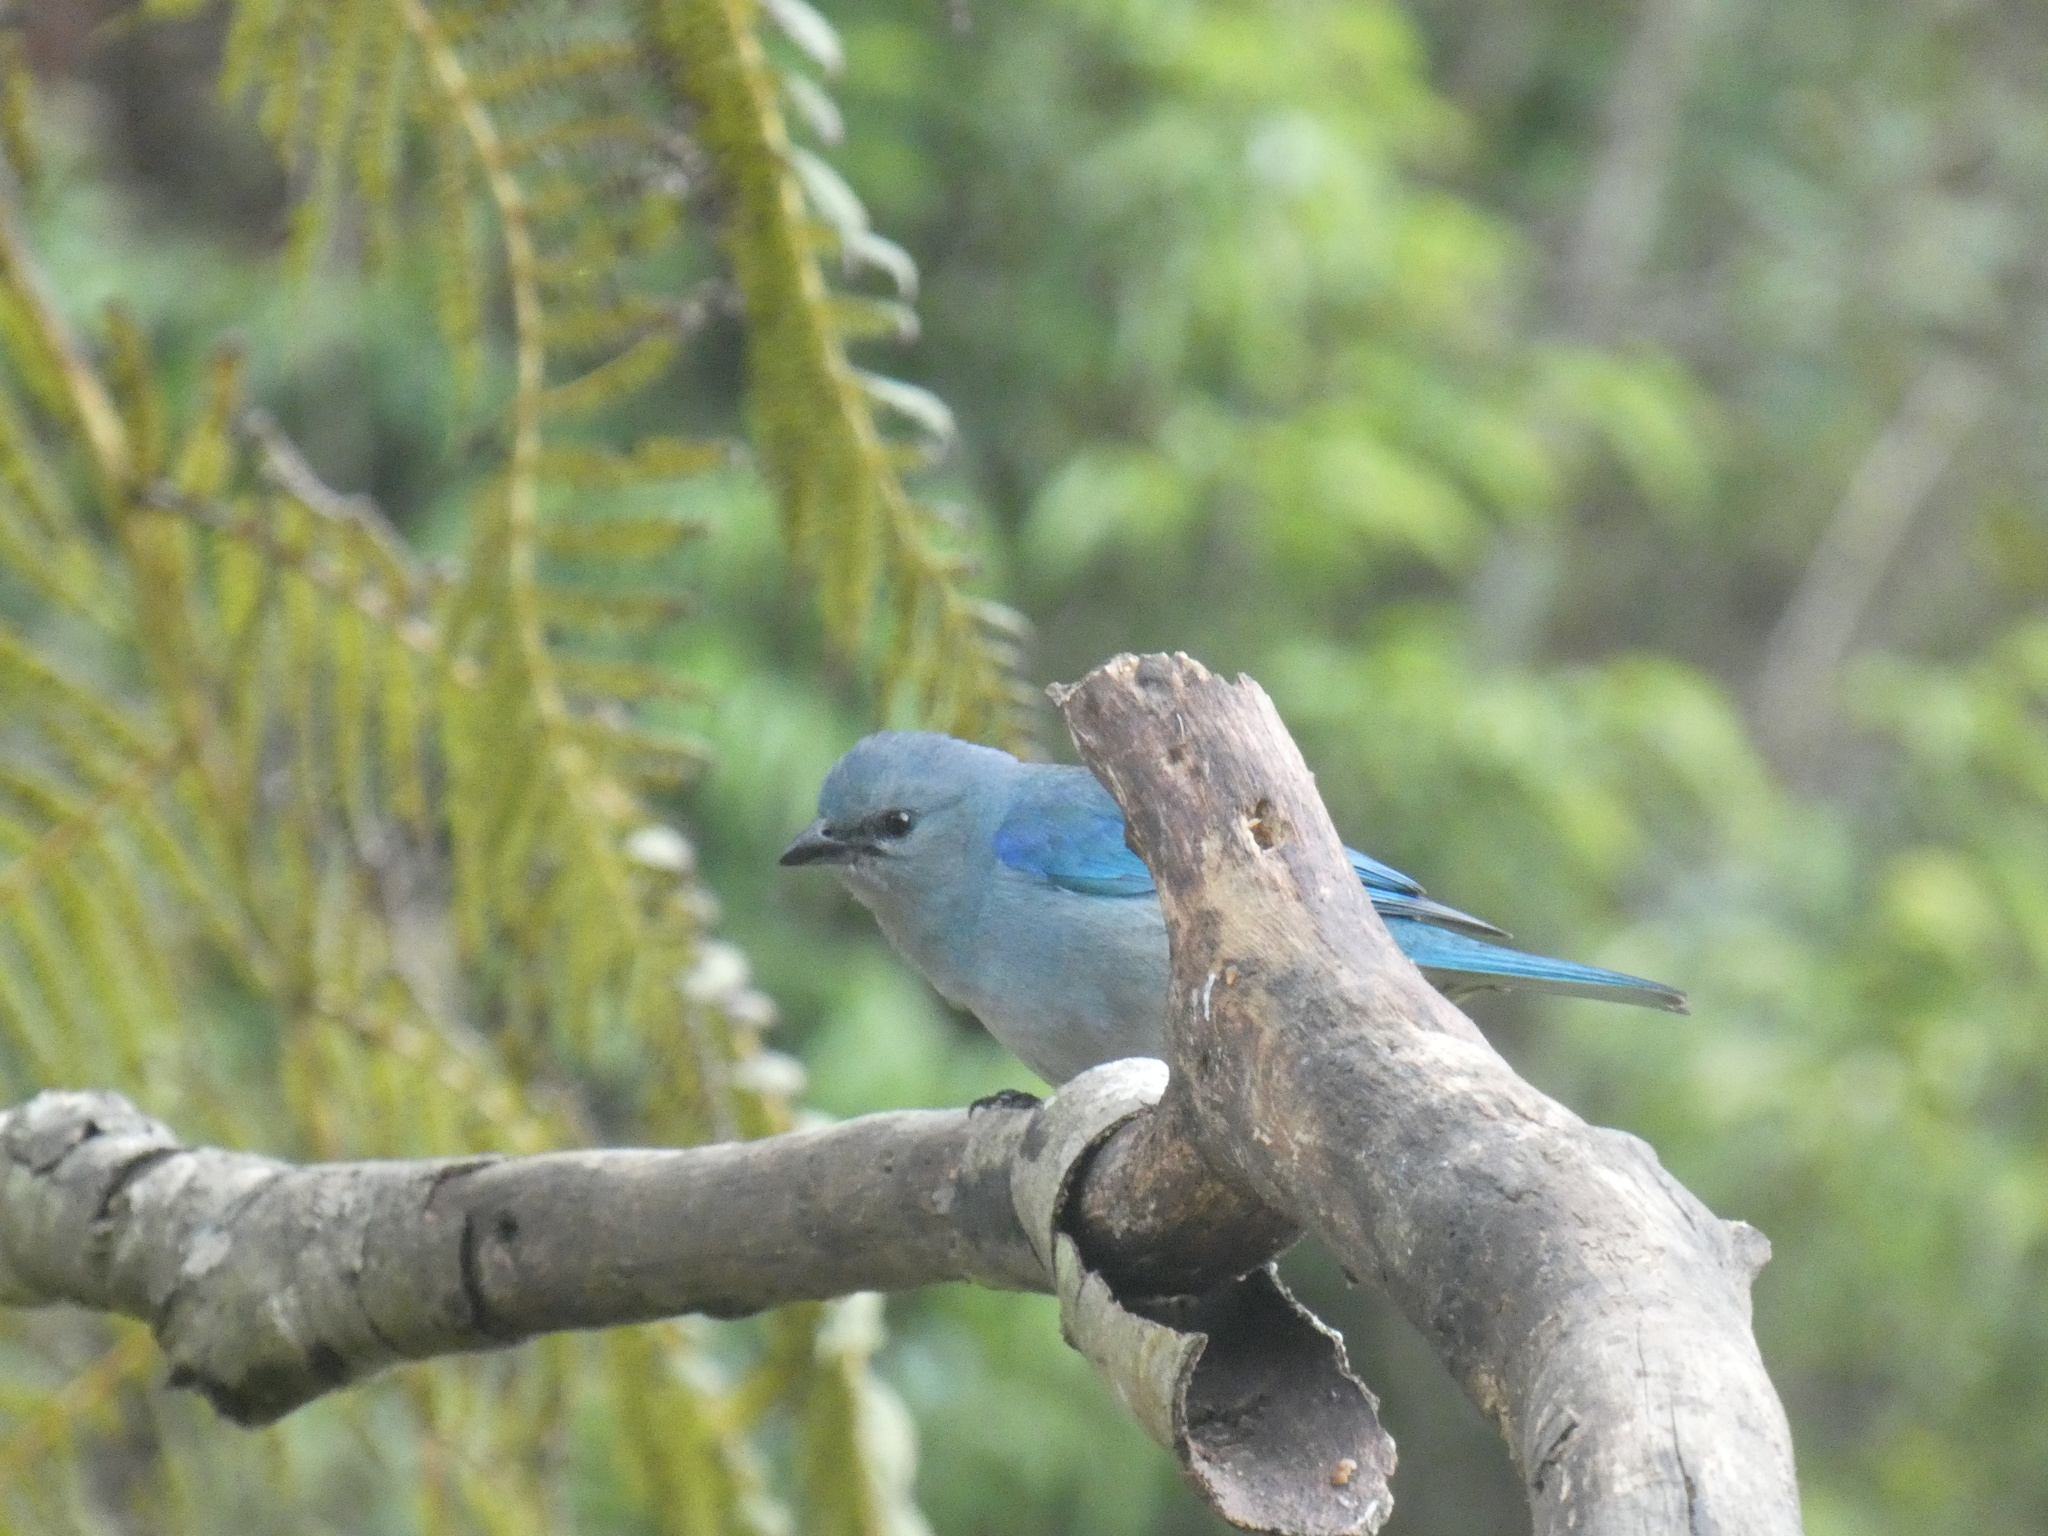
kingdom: Animalia
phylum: Chordata
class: Aves
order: Passeriformes
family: Thraupidae
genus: Thraupis
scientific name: Thraupis cyanoptera
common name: Azure-shouldered tanager
